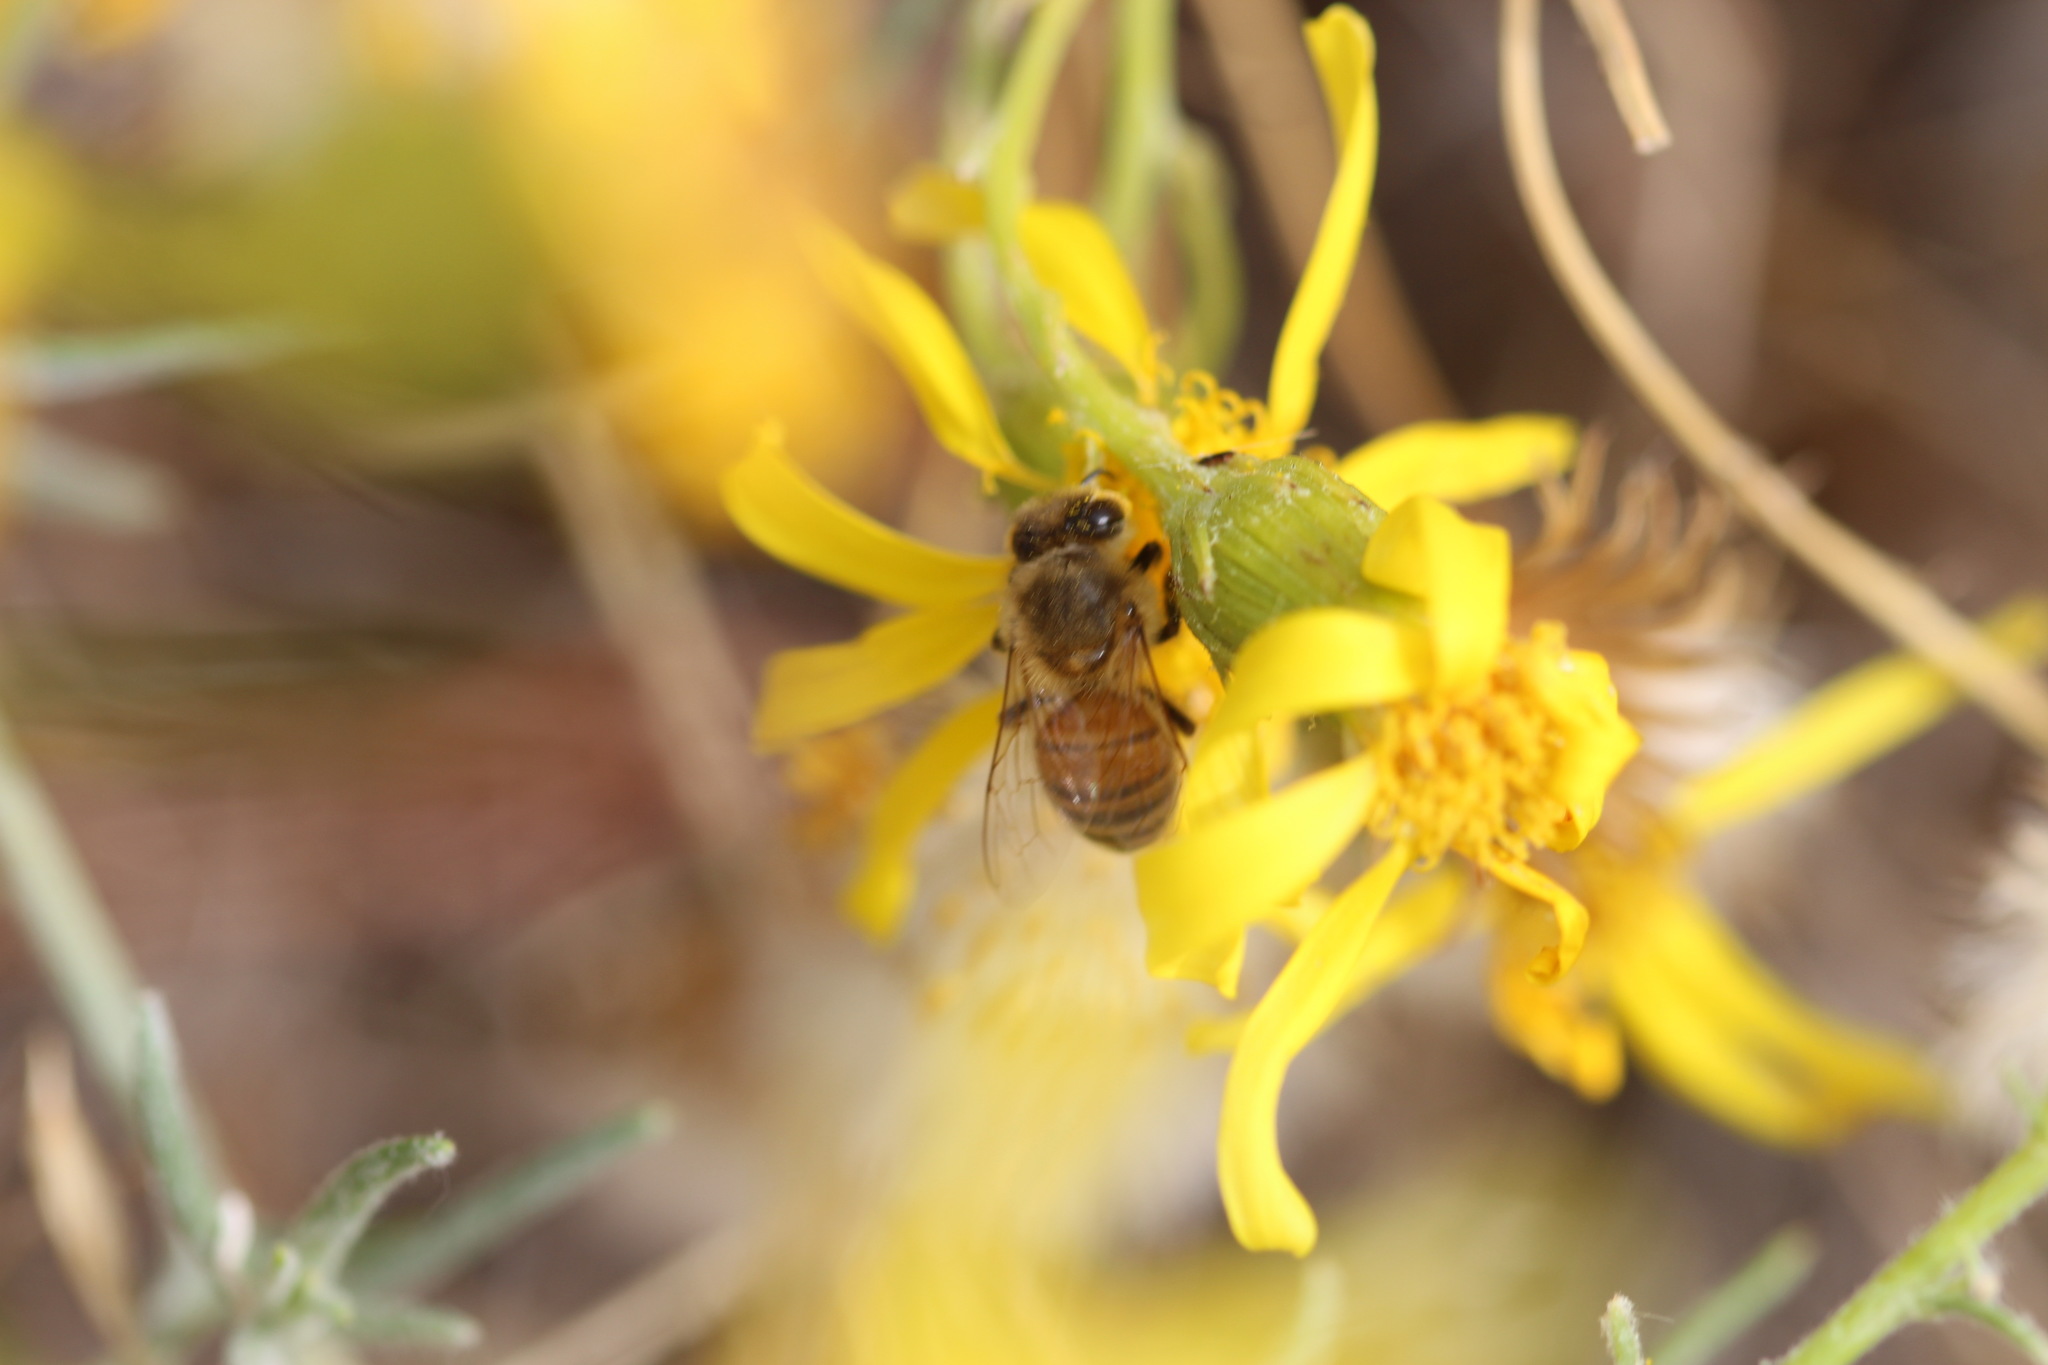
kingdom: Animalia
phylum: Arthropoda
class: Insecta
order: Hymenoptera
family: Apidae
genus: Apis
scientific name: Apis mellifera
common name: Honey bee
